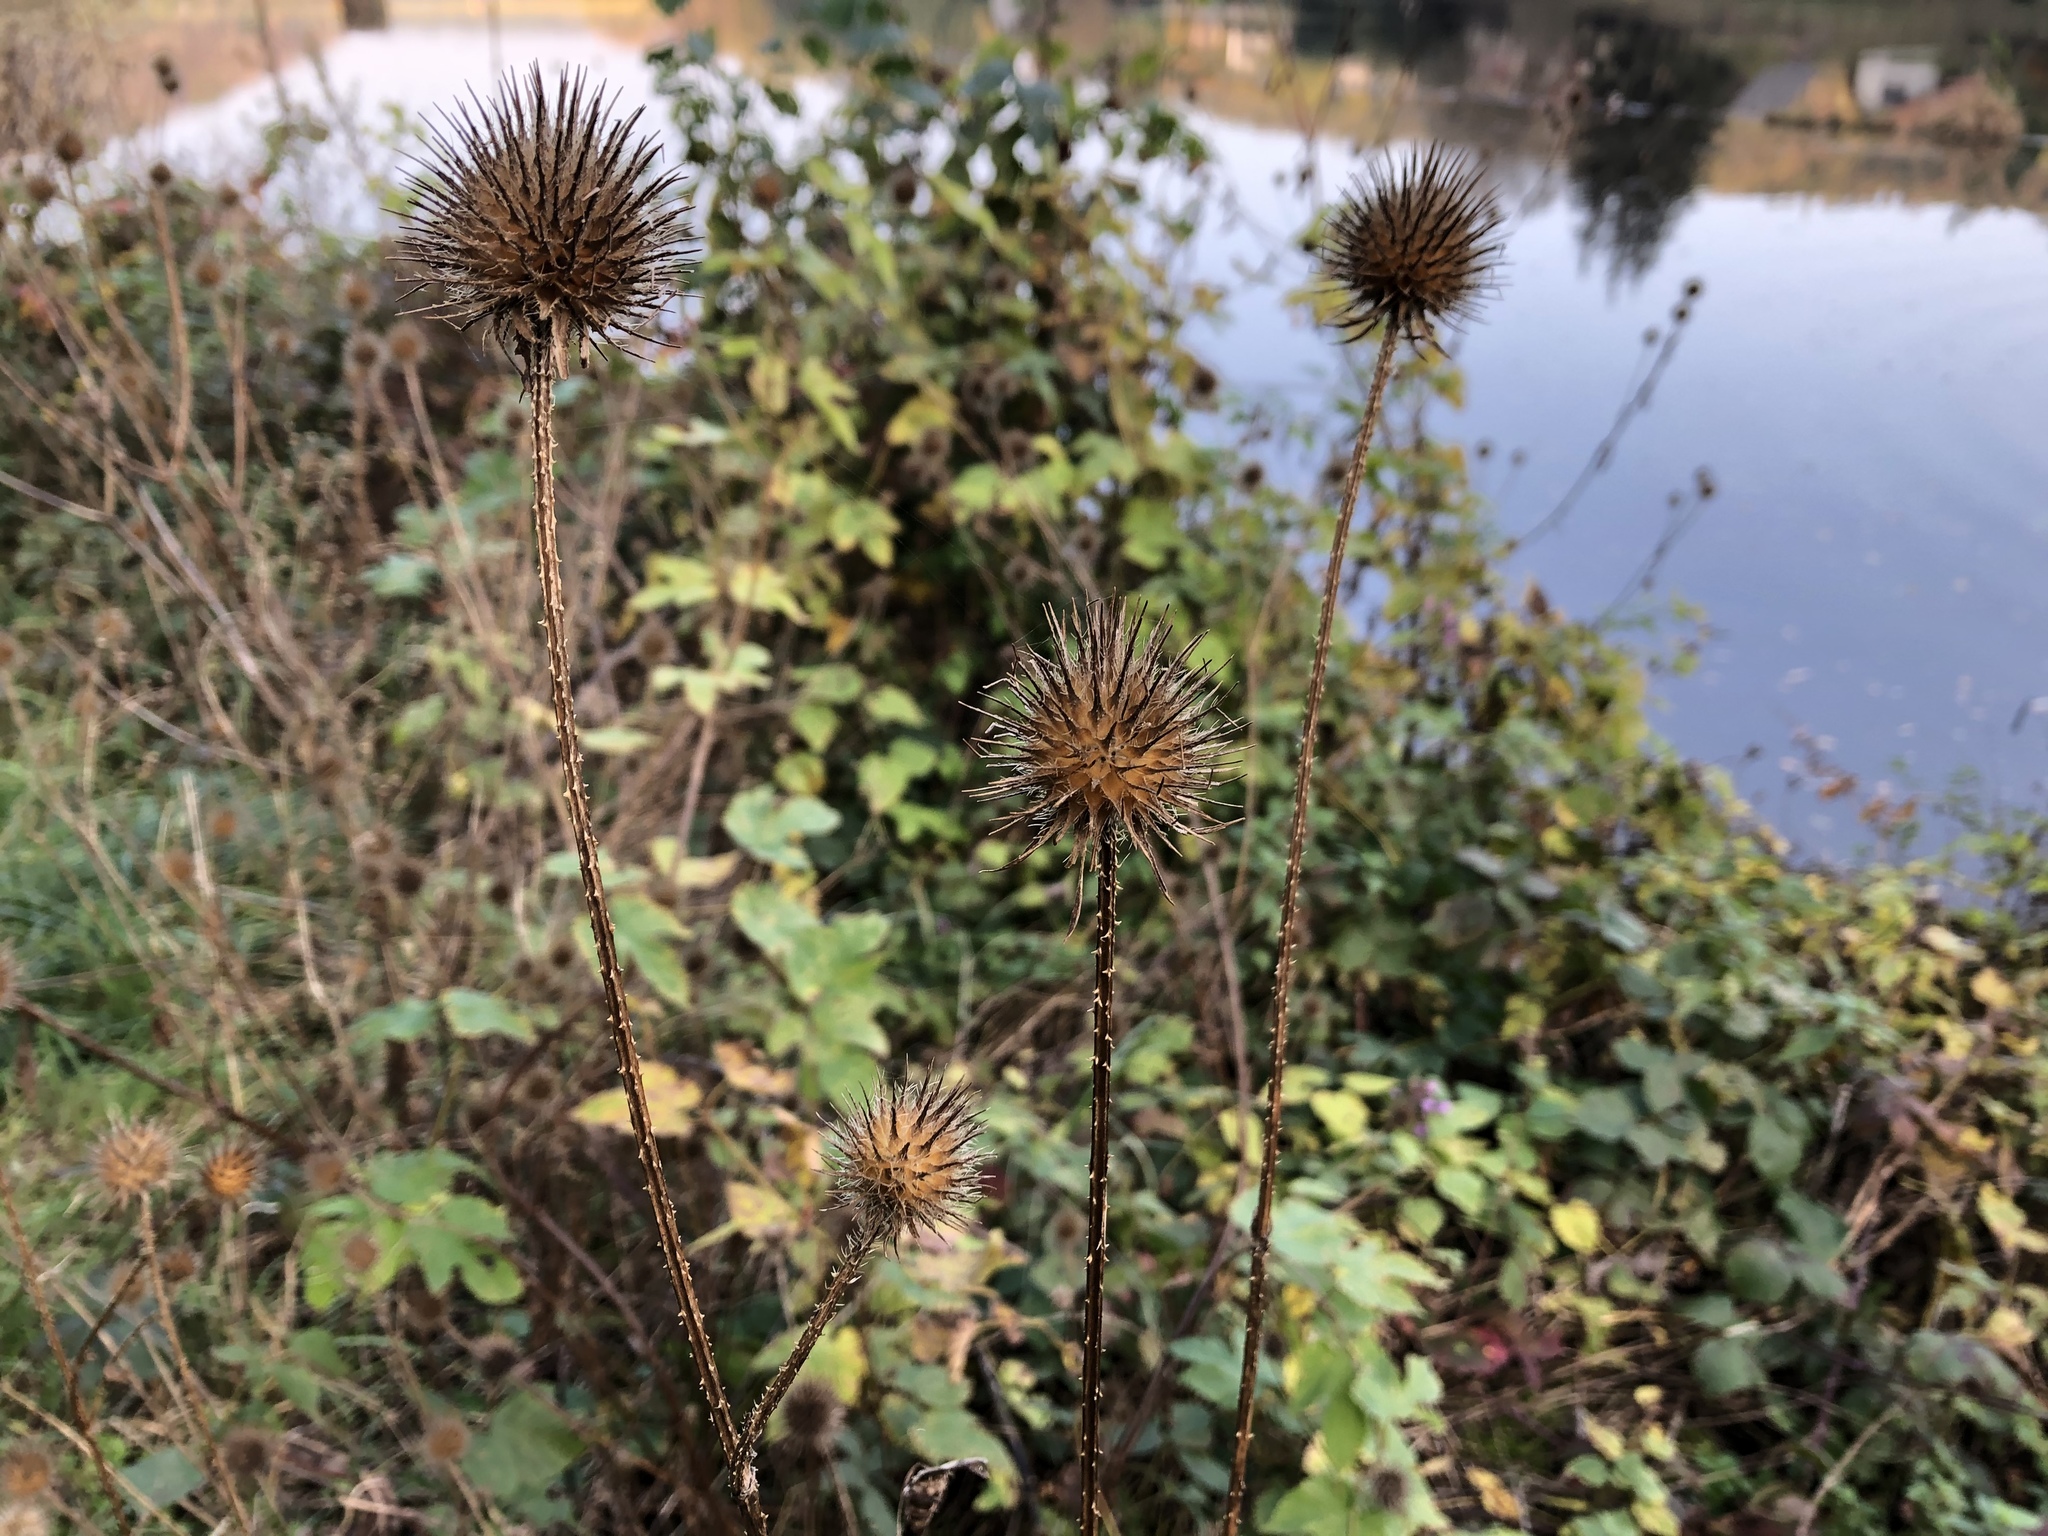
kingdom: Plantae
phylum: Tracheophyta
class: Magnoliopsida
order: Dipsacales
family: Caprifoliaceae
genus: Dipsacus
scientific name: Dipsacus strigosus
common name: Yellow-flowered teasel
